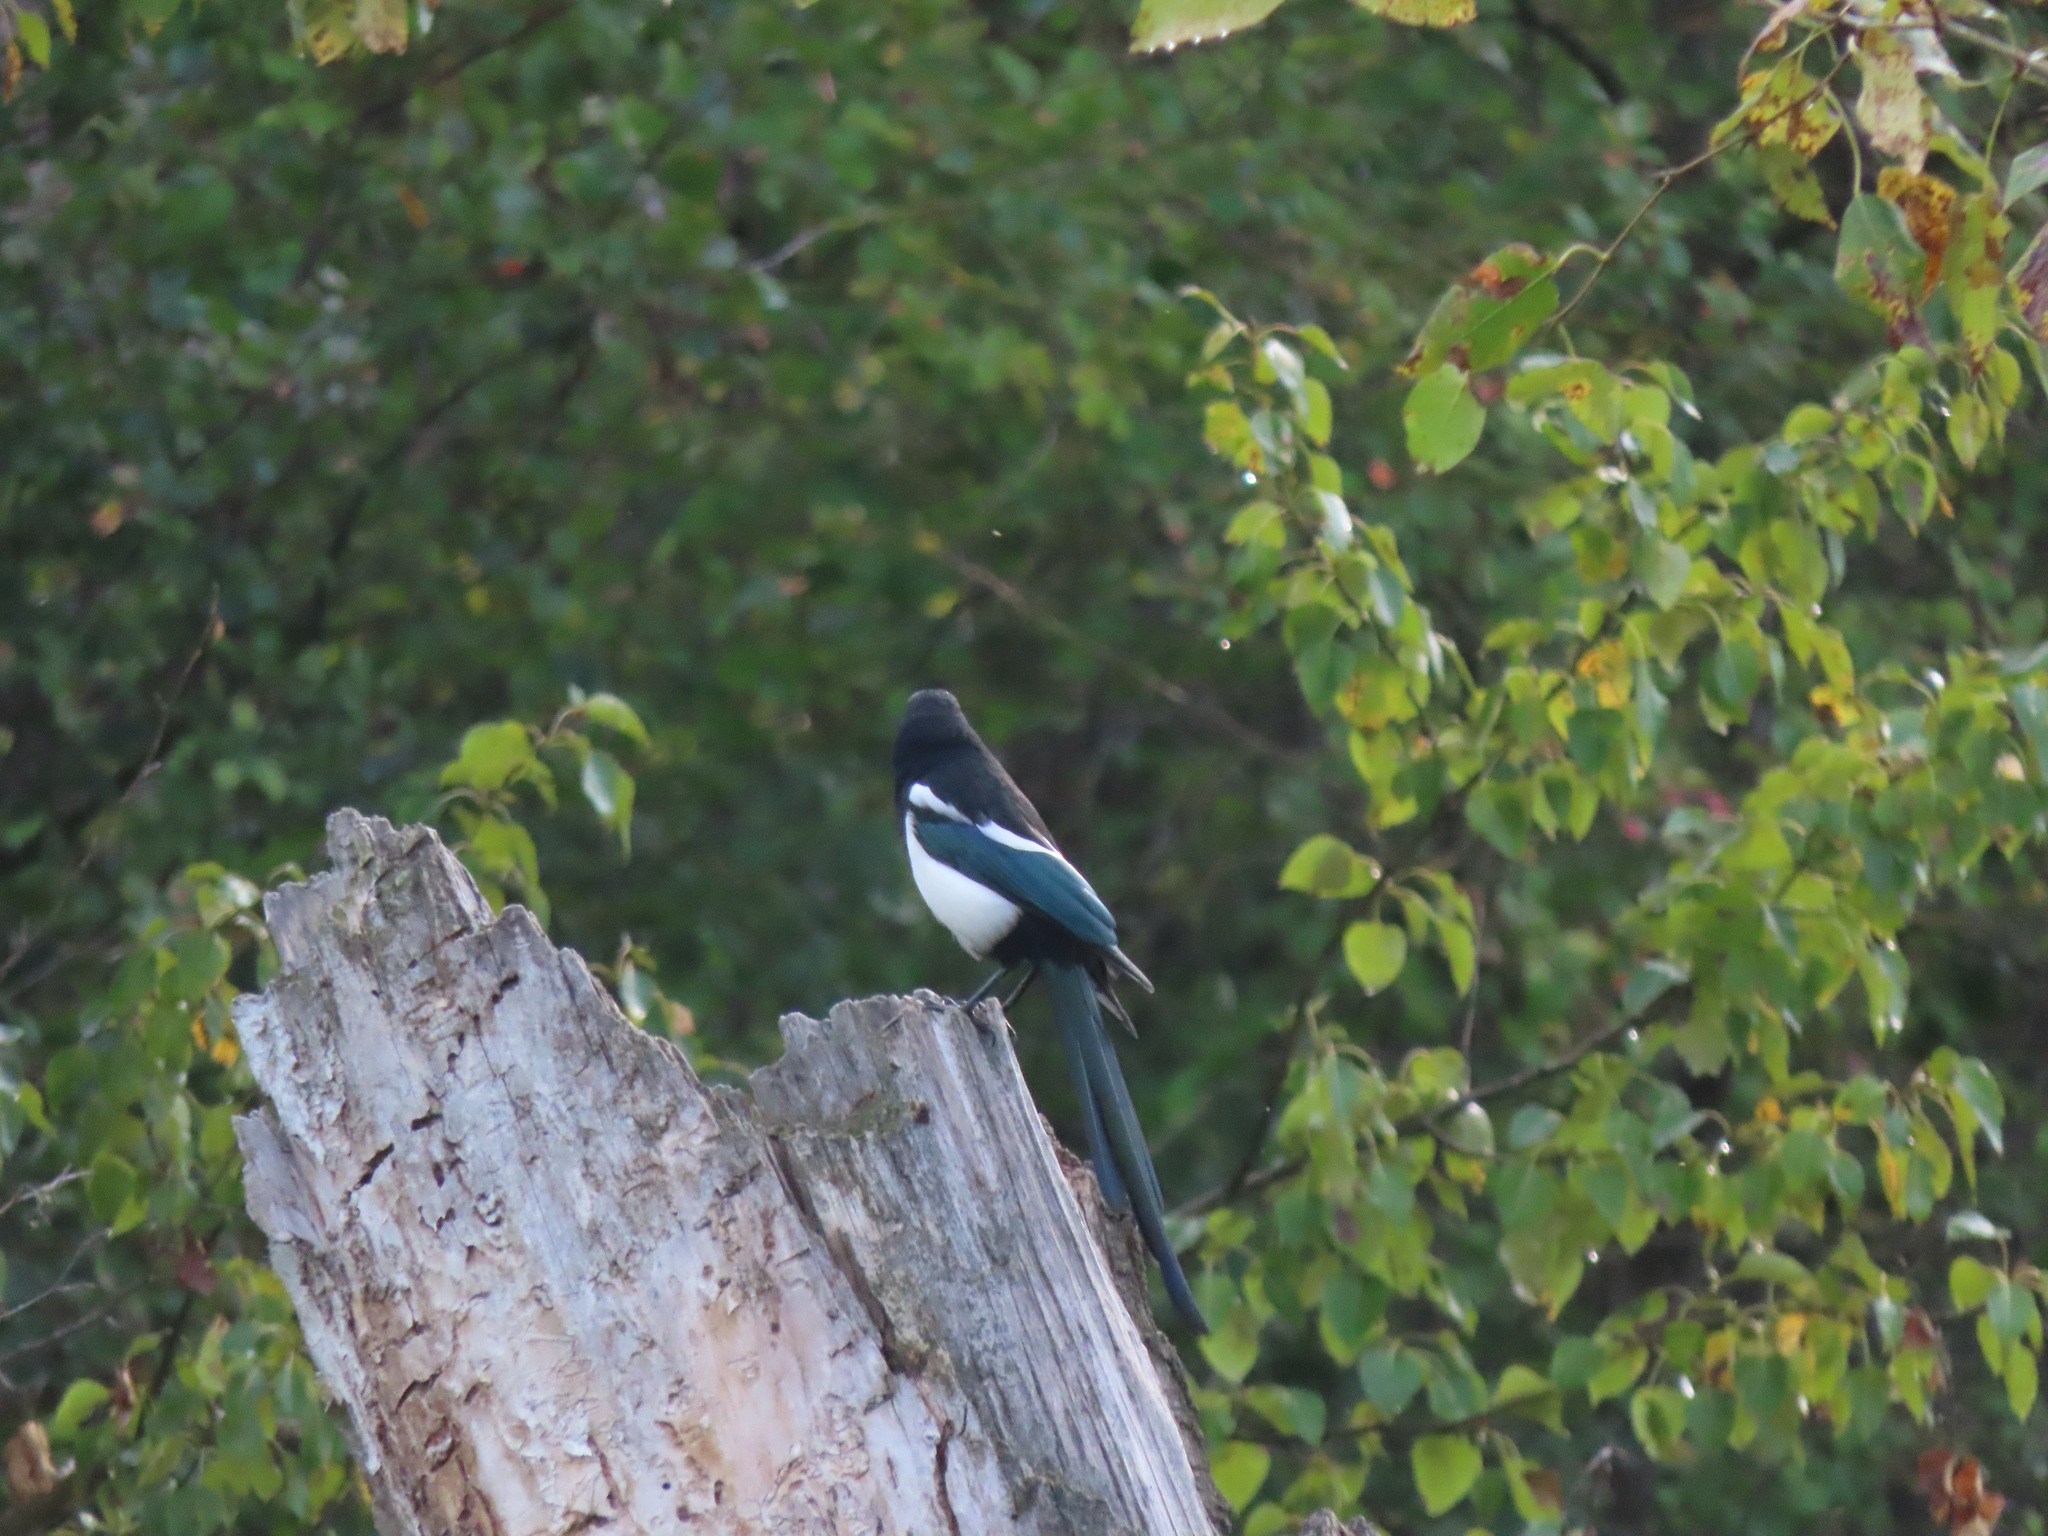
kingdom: Animalia
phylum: Chordata
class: Aves
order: Passeriformes
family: Corvidae
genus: Pica
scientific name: Pica hudsonia
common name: Black-billed magpie
